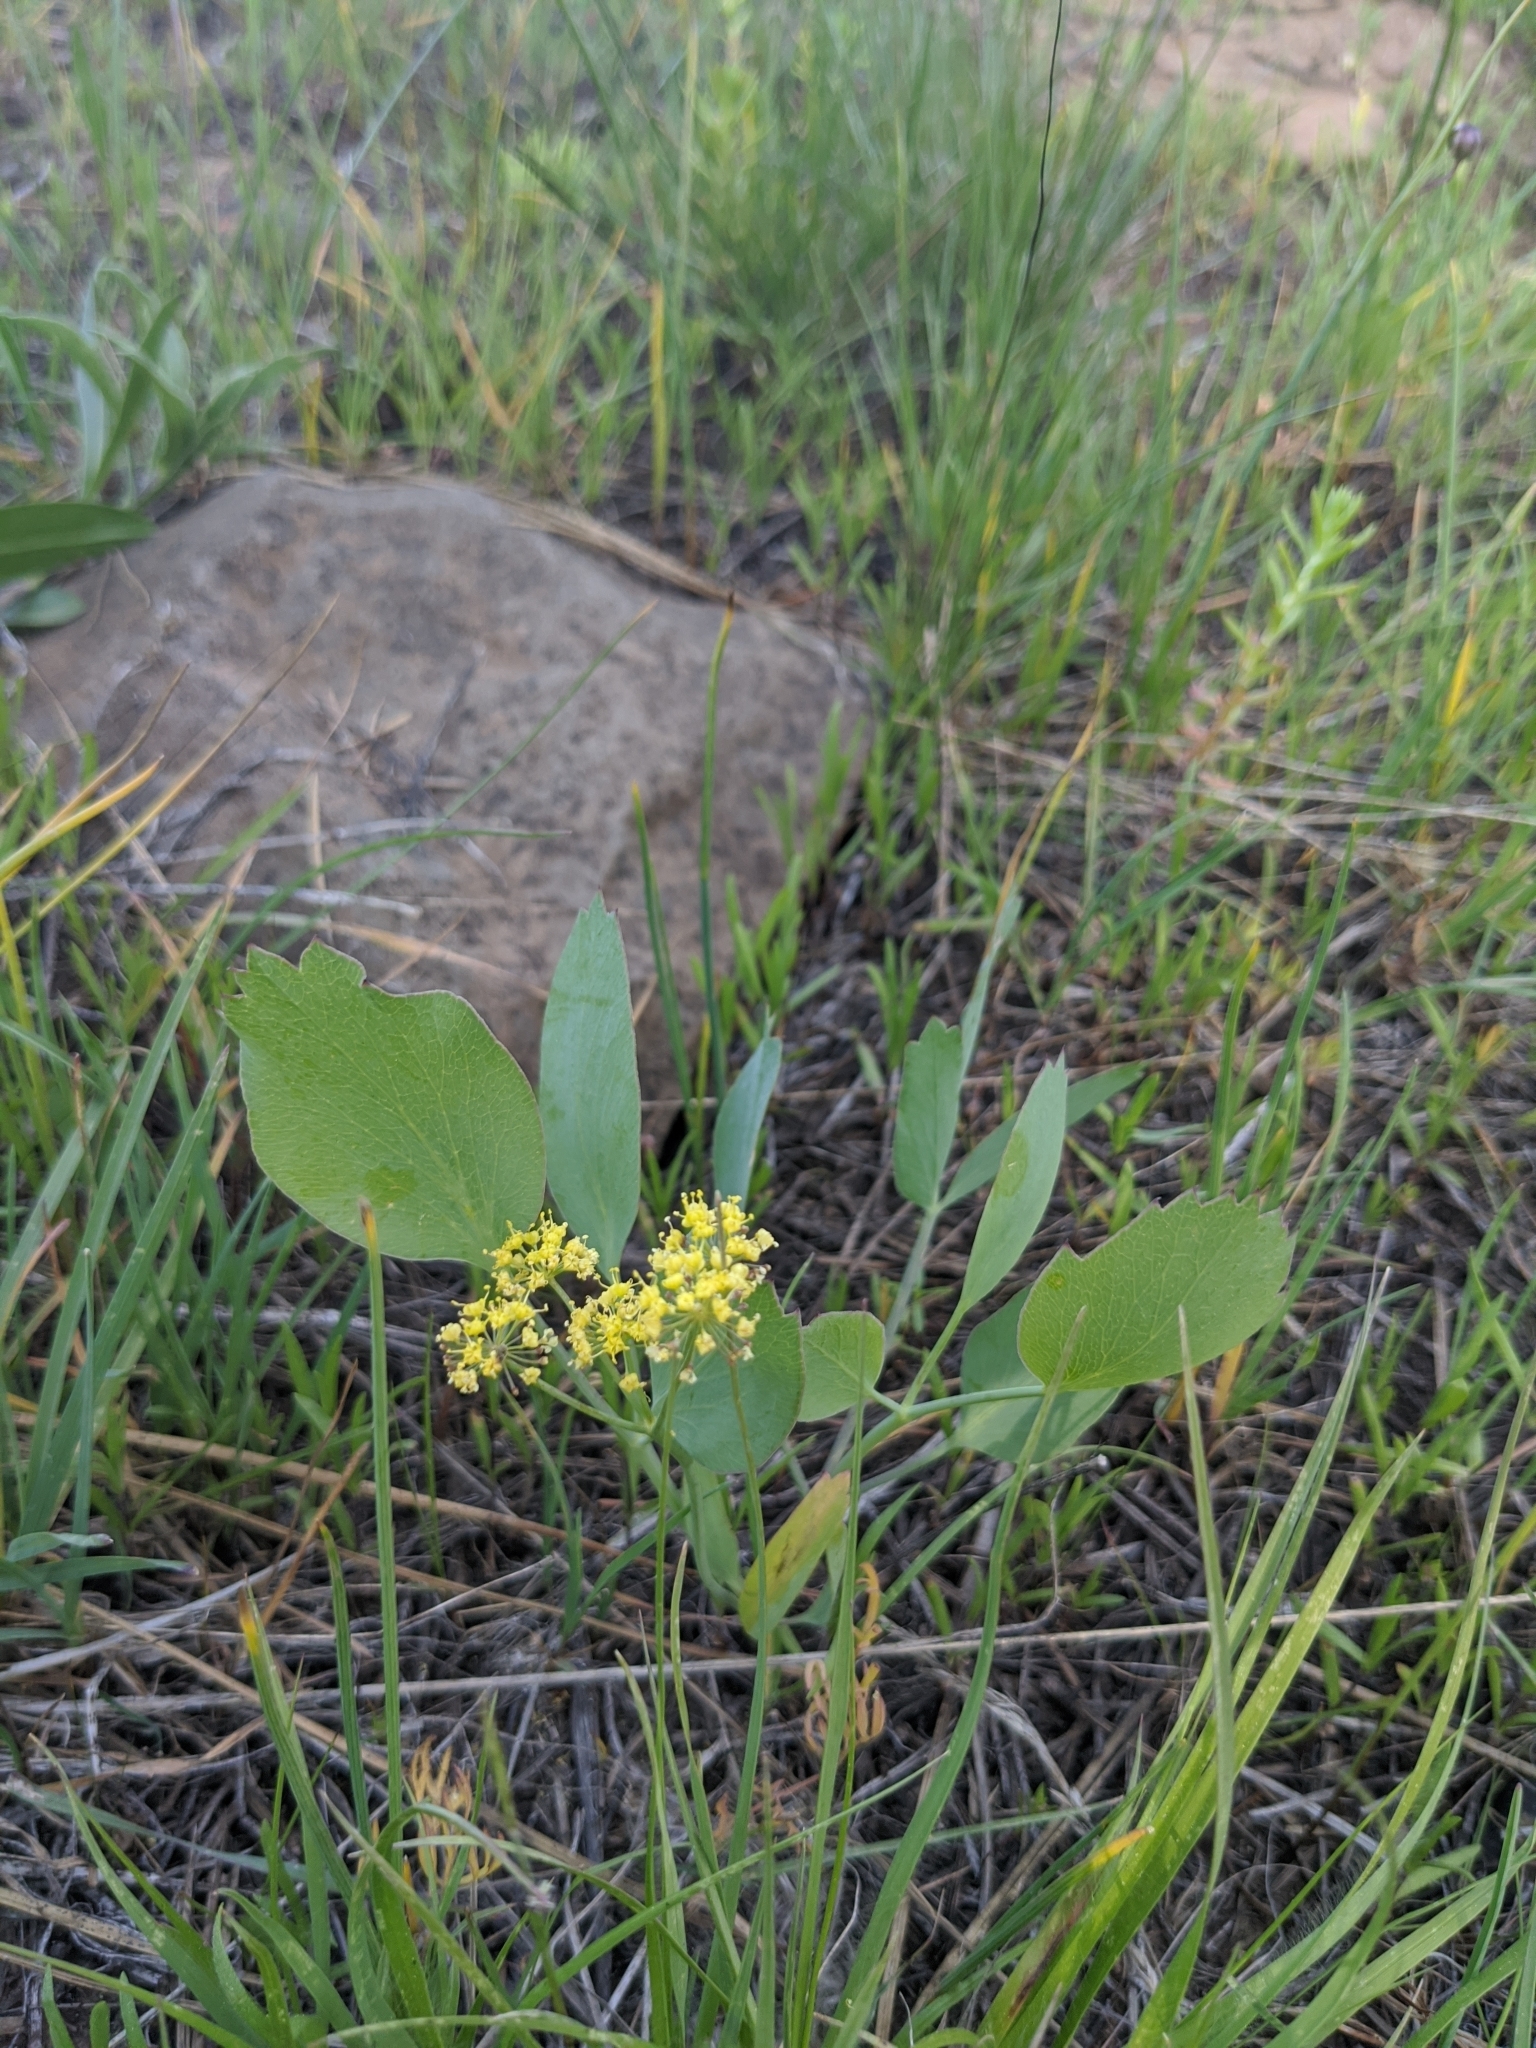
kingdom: Plantae
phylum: Tracheophyta
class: Magnoliopsida
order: Apiales
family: Apiaceae
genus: Lomatium
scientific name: Lomatium nudicaule
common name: Pestle lomatium
